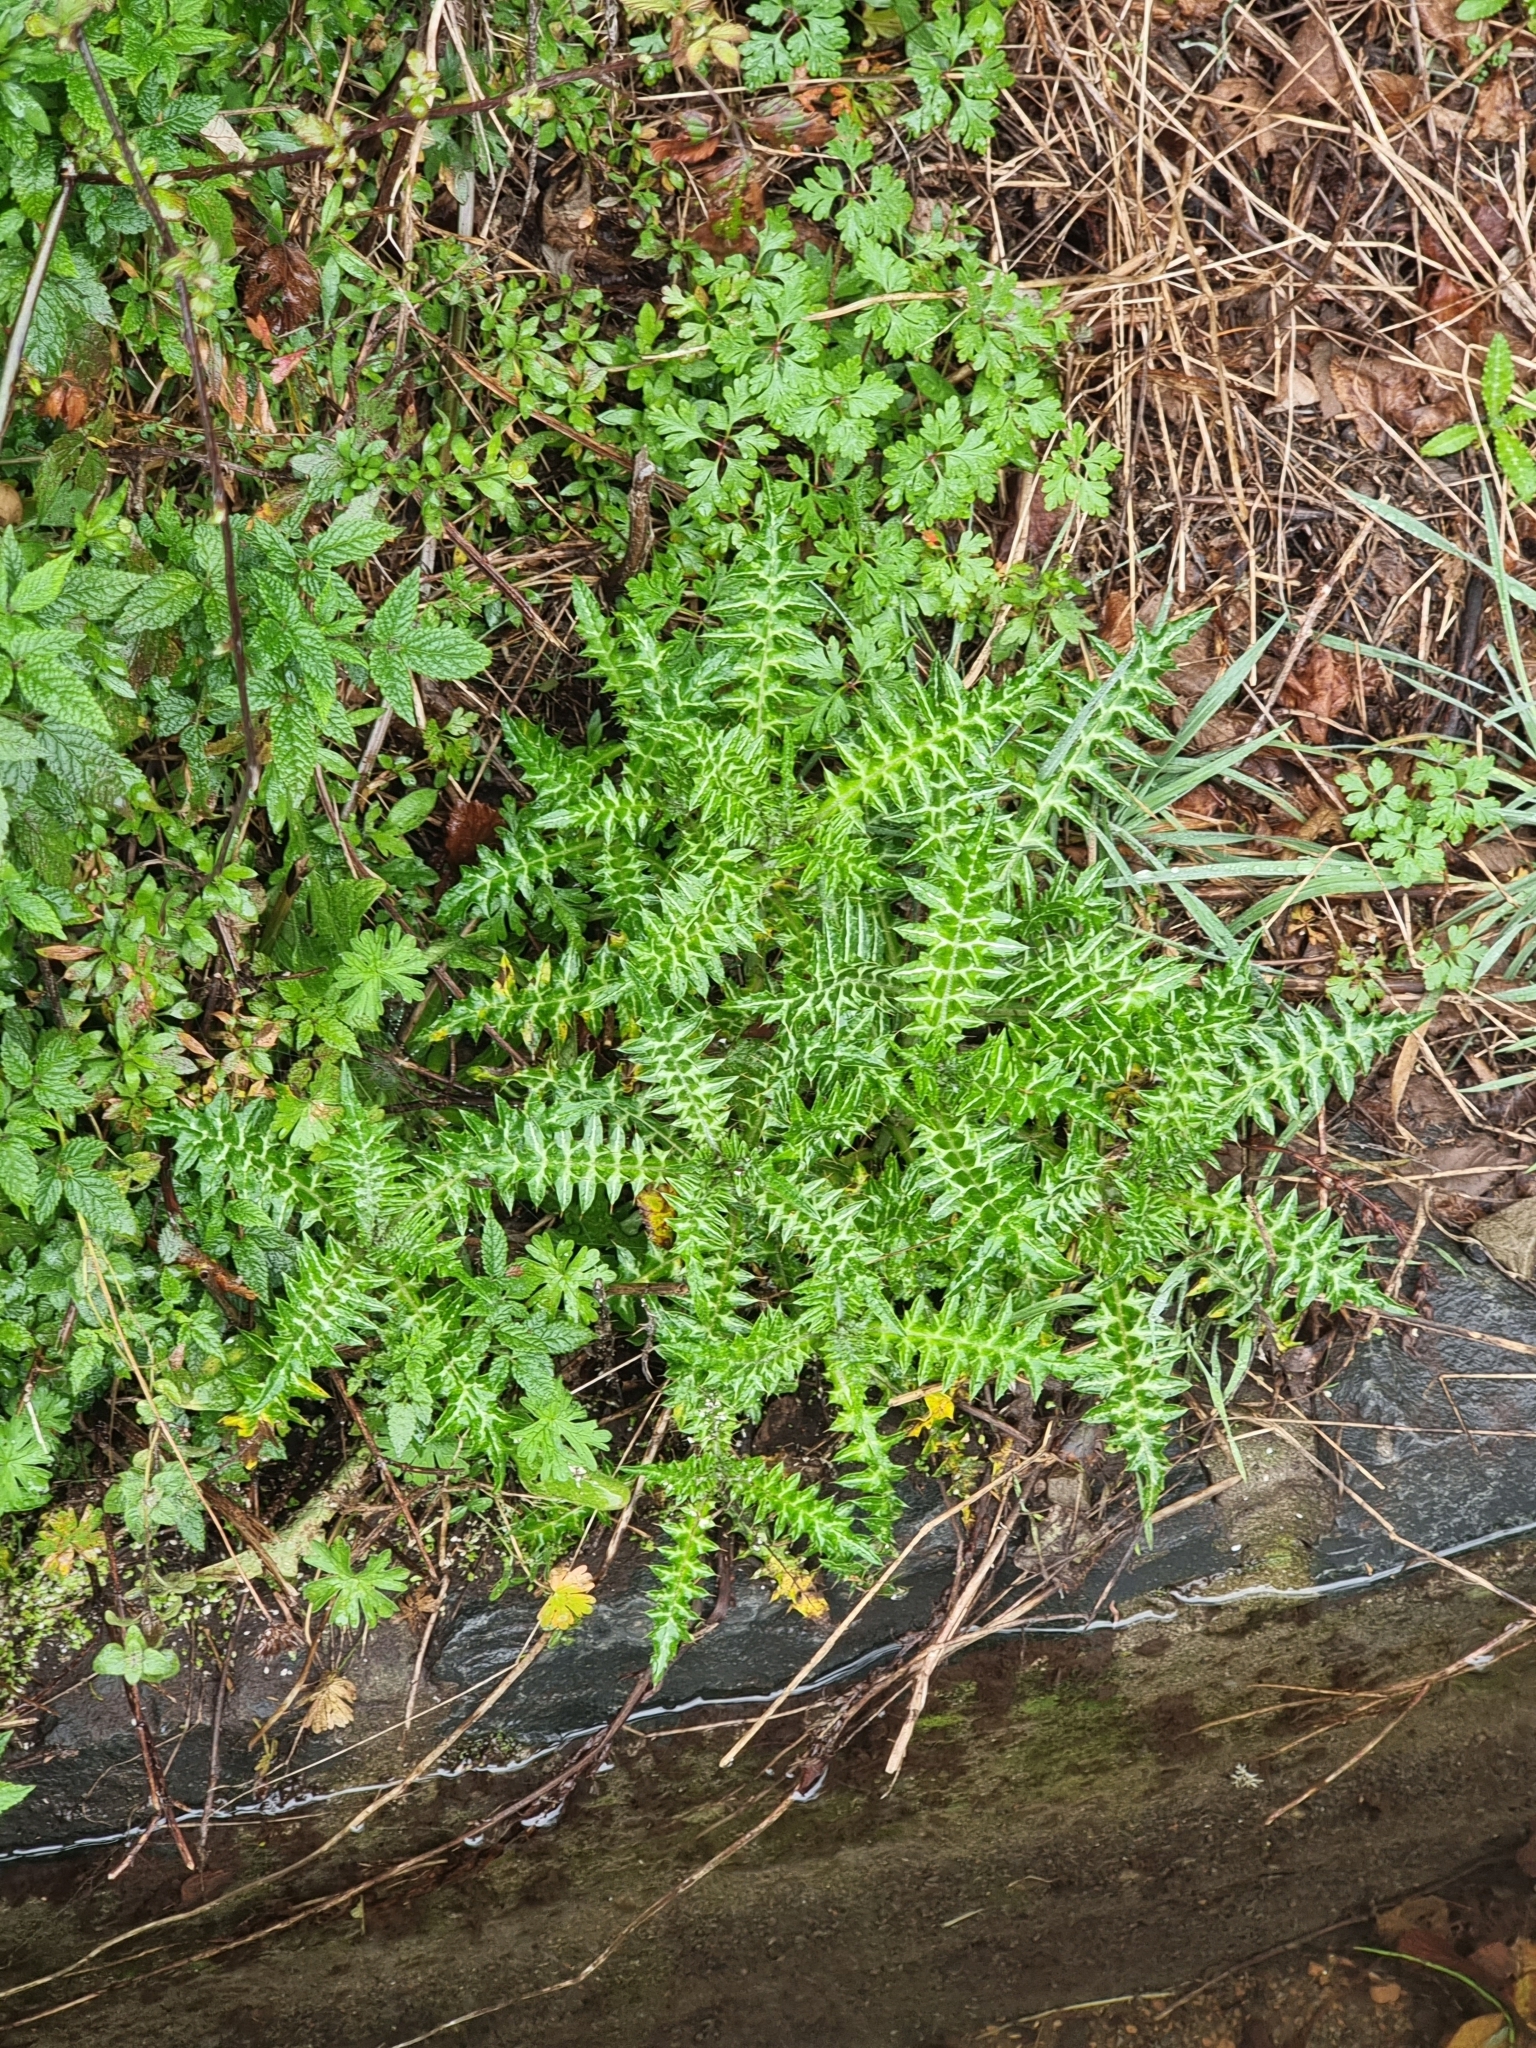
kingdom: Plantae
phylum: Tracheophyta
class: Magnoliopsida
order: Asterales
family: Asteraceae
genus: Galactites
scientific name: Galactites tomentosa
